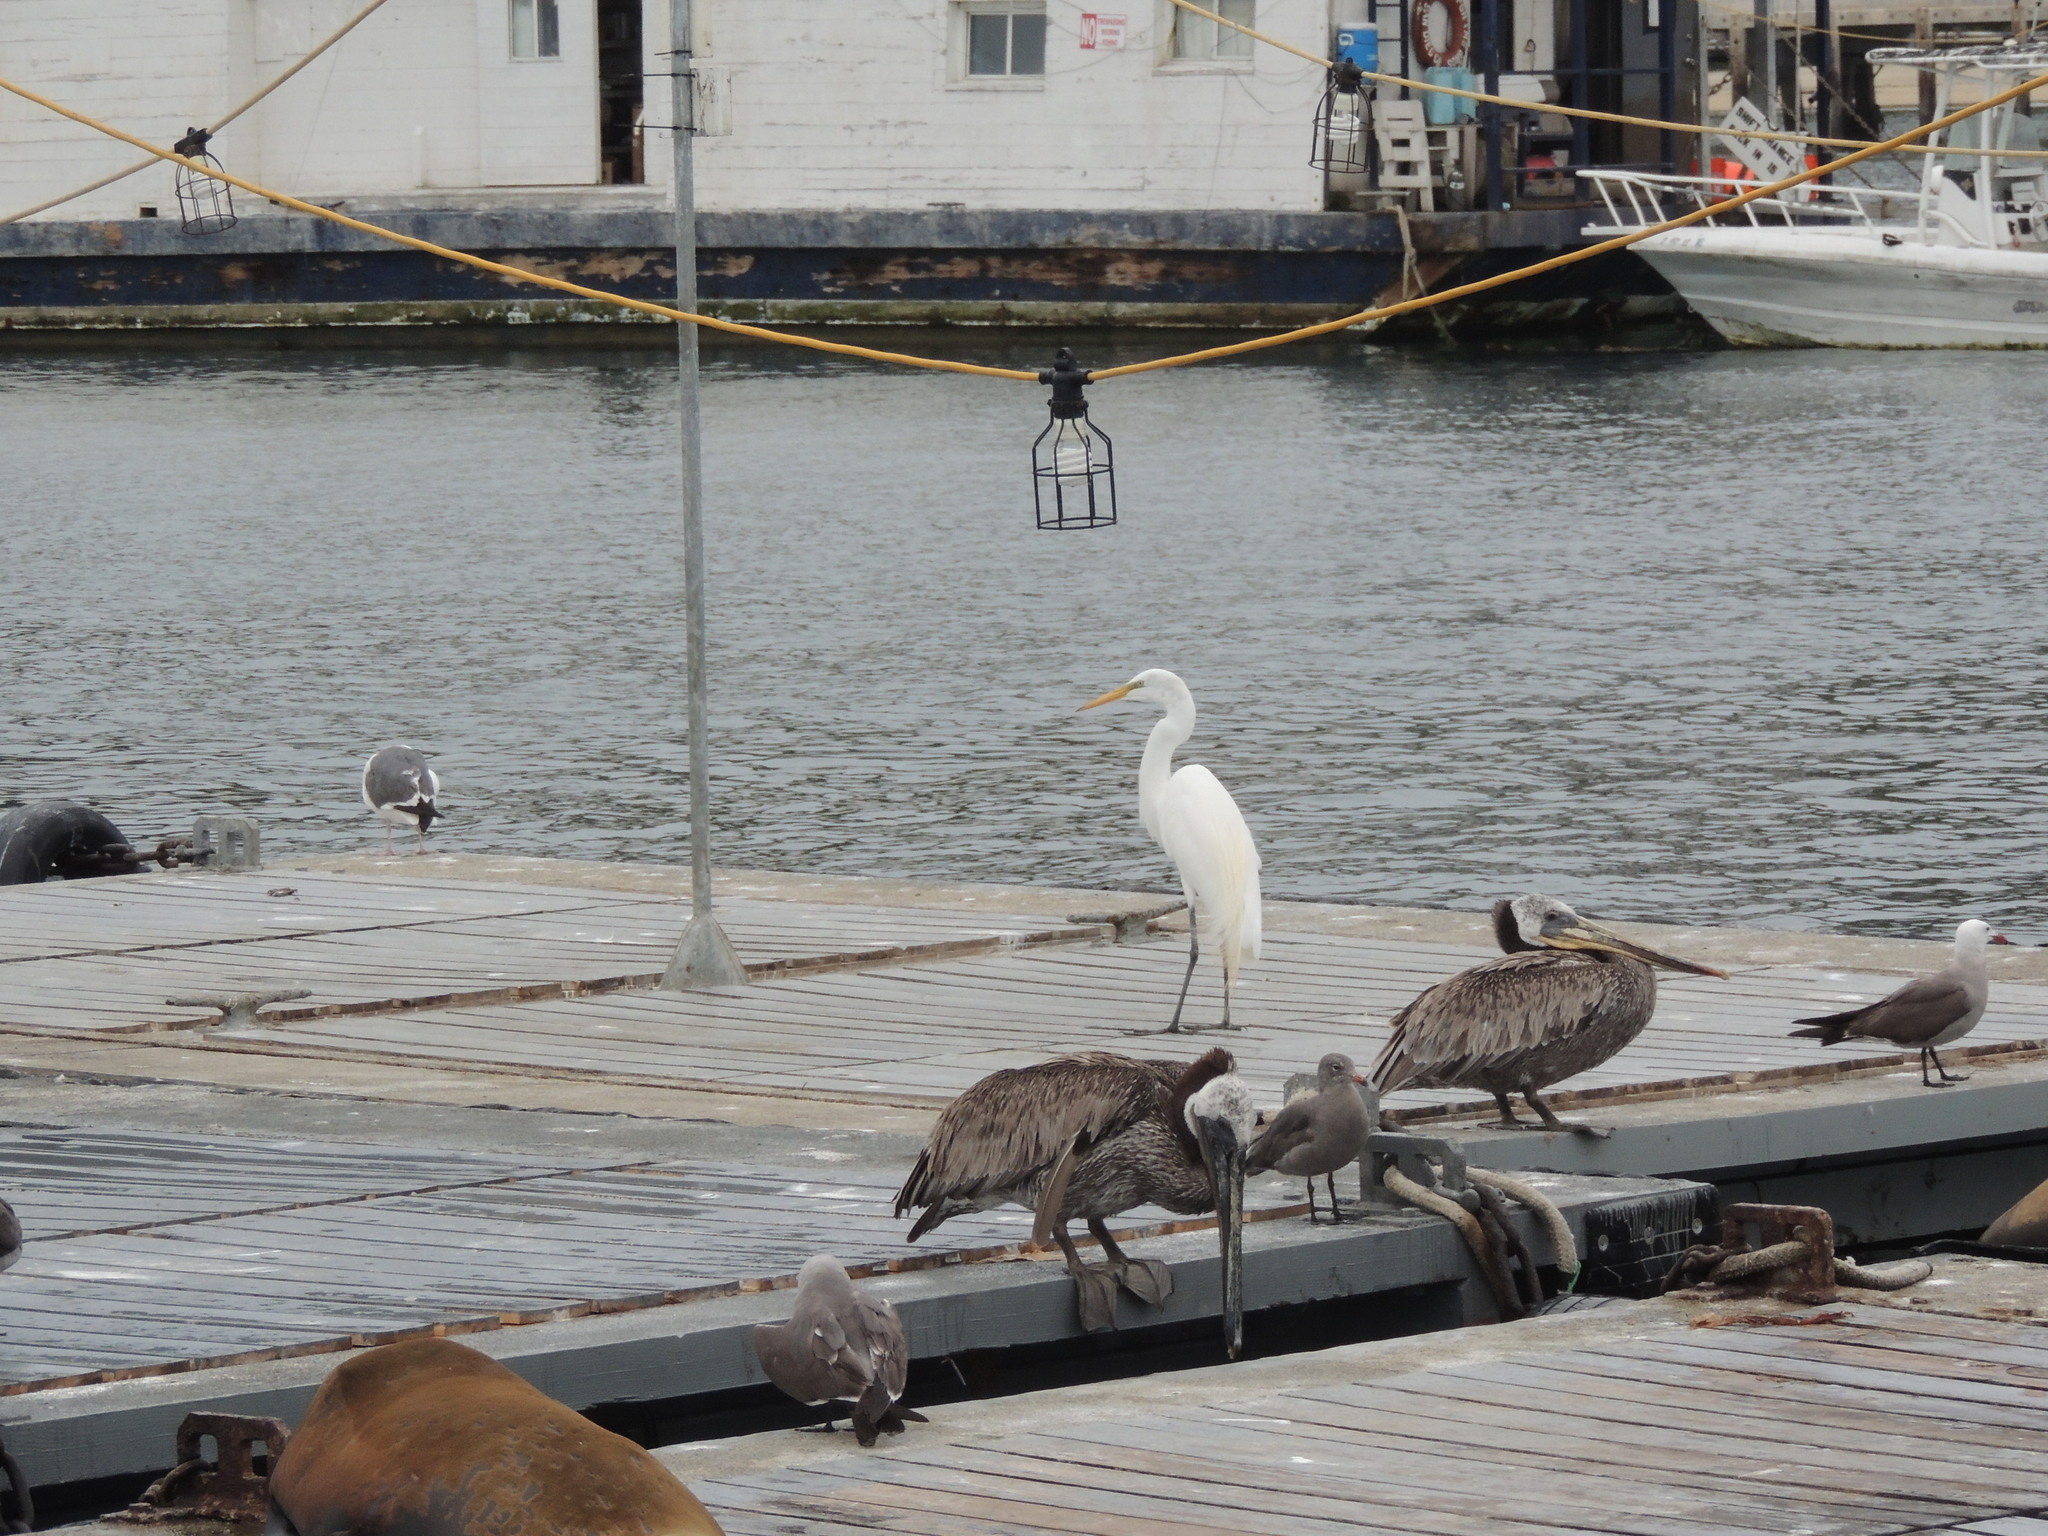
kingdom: Animalia
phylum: Chordata
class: Aves
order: Pelecaniformes
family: Ardeidae
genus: Ardea
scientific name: Ardea alba
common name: Great egret
